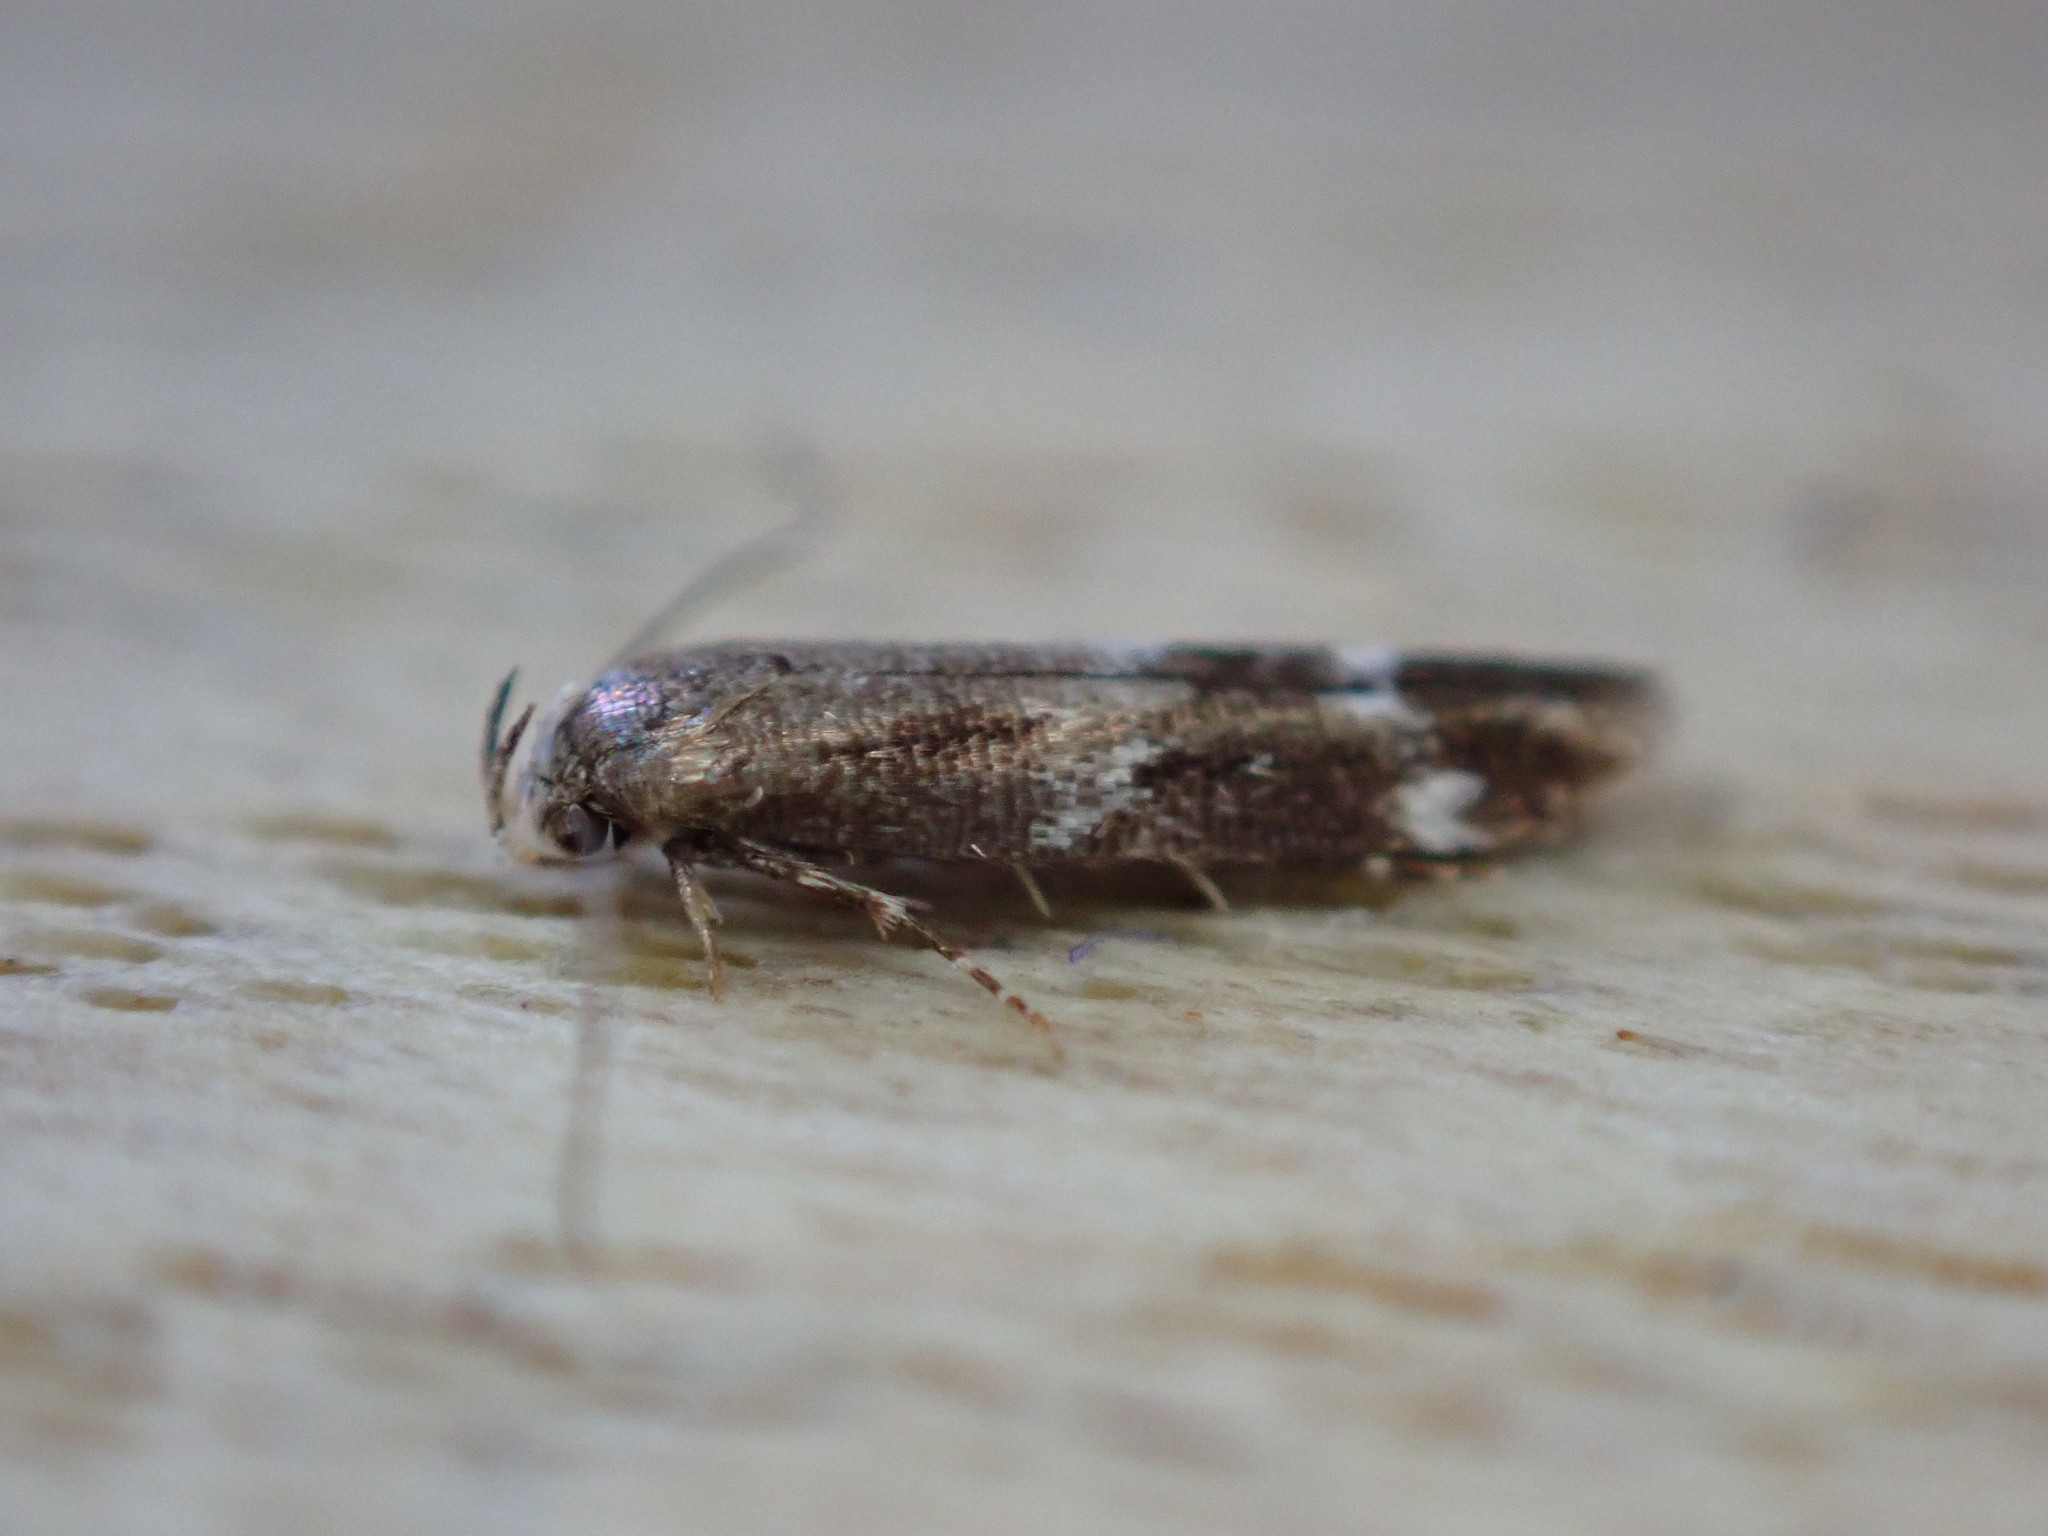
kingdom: Animalia
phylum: Arthropoda
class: Insecta
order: Lepidoptera
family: Momphidae
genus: Mompha
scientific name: Mompha subbistrigella
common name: Garden cosmet
